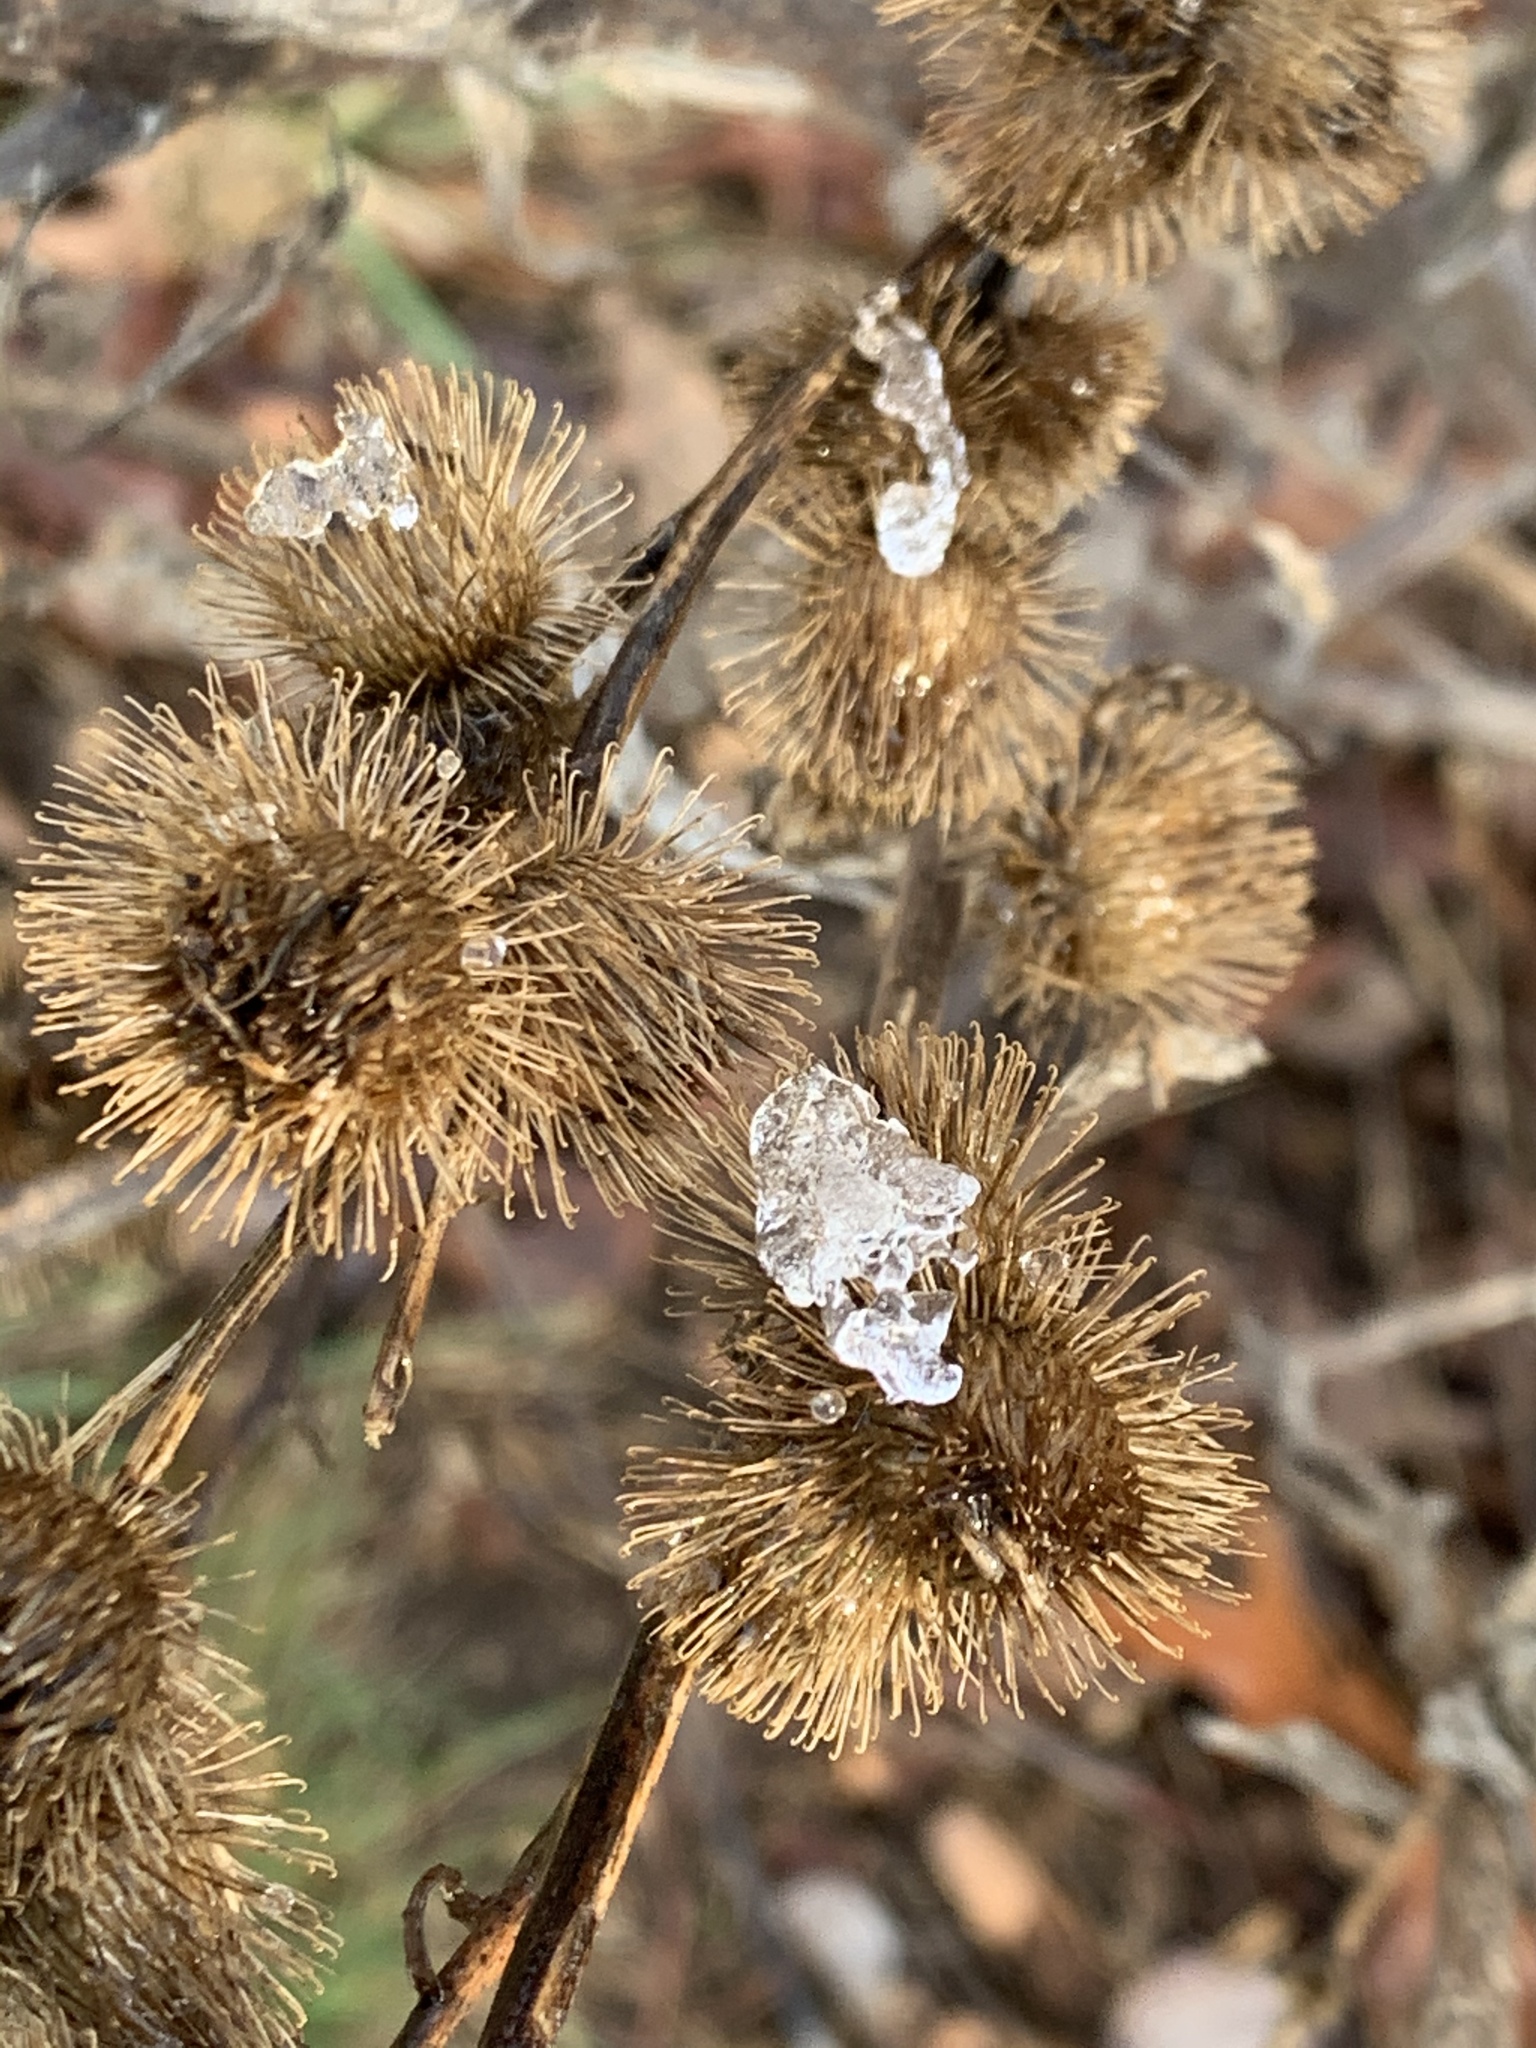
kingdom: Plantae
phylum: Tracheophyta
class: Magnoliopsida
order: Asterales
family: Asteraceae
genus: Arctium
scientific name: Arctium minus
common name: Lesser burdock
